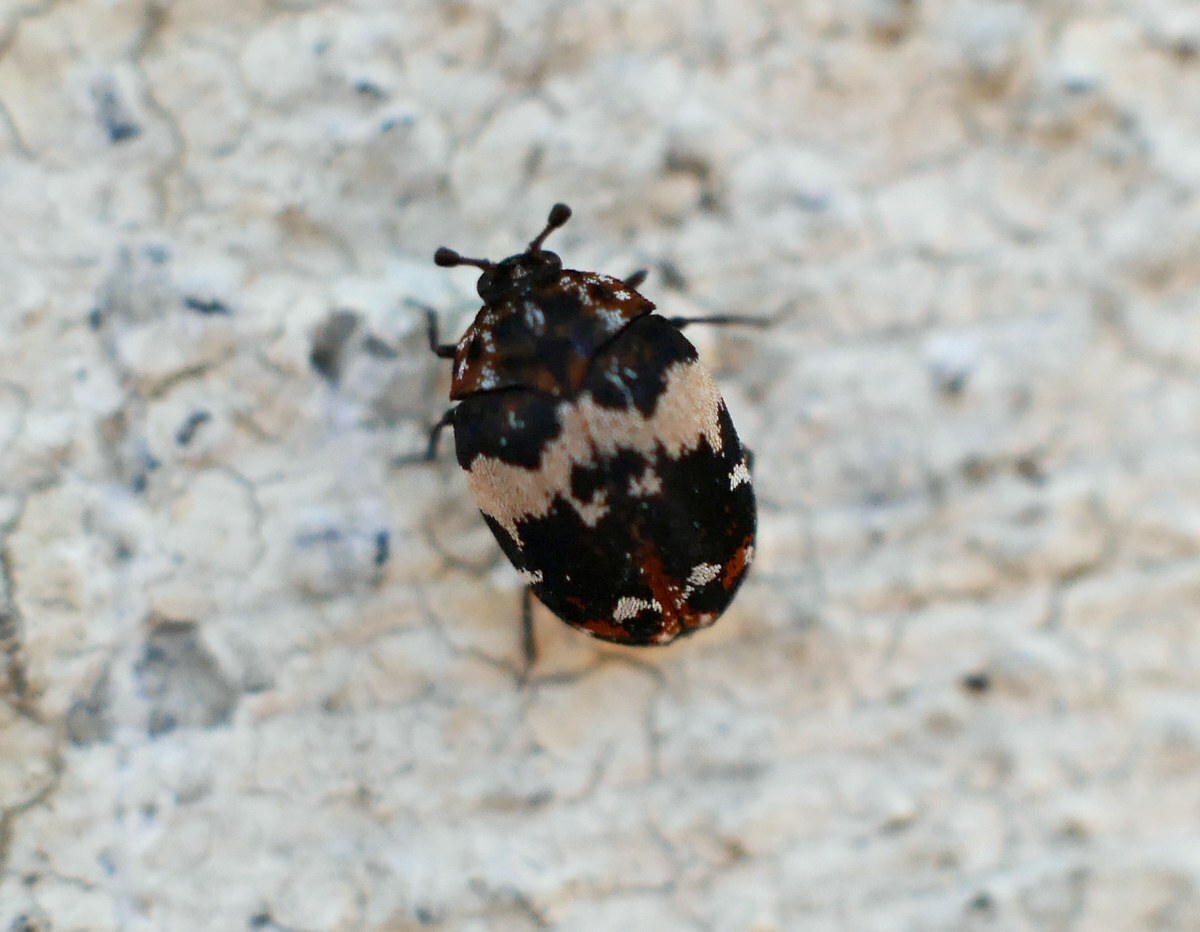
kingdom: Animalia
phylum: Arthropoda
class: Insecta
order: Coleoptera
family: Dermestidae
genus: Anthrenus
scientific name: Anthrenus pimpinellae
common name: Dermestid beetle
